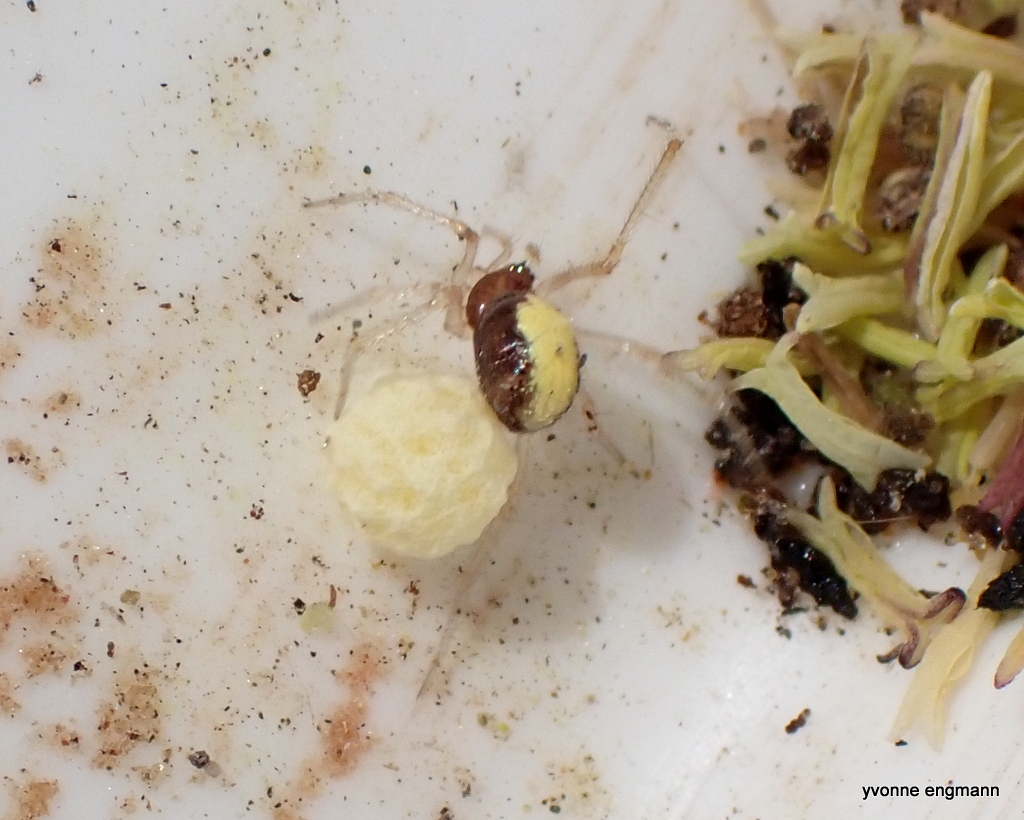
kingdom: Animalia
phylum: Arthropoda
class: Arachnida
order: Araneae
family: Theridiidae
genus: Neottiura
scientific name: Neottiura bimaculata
